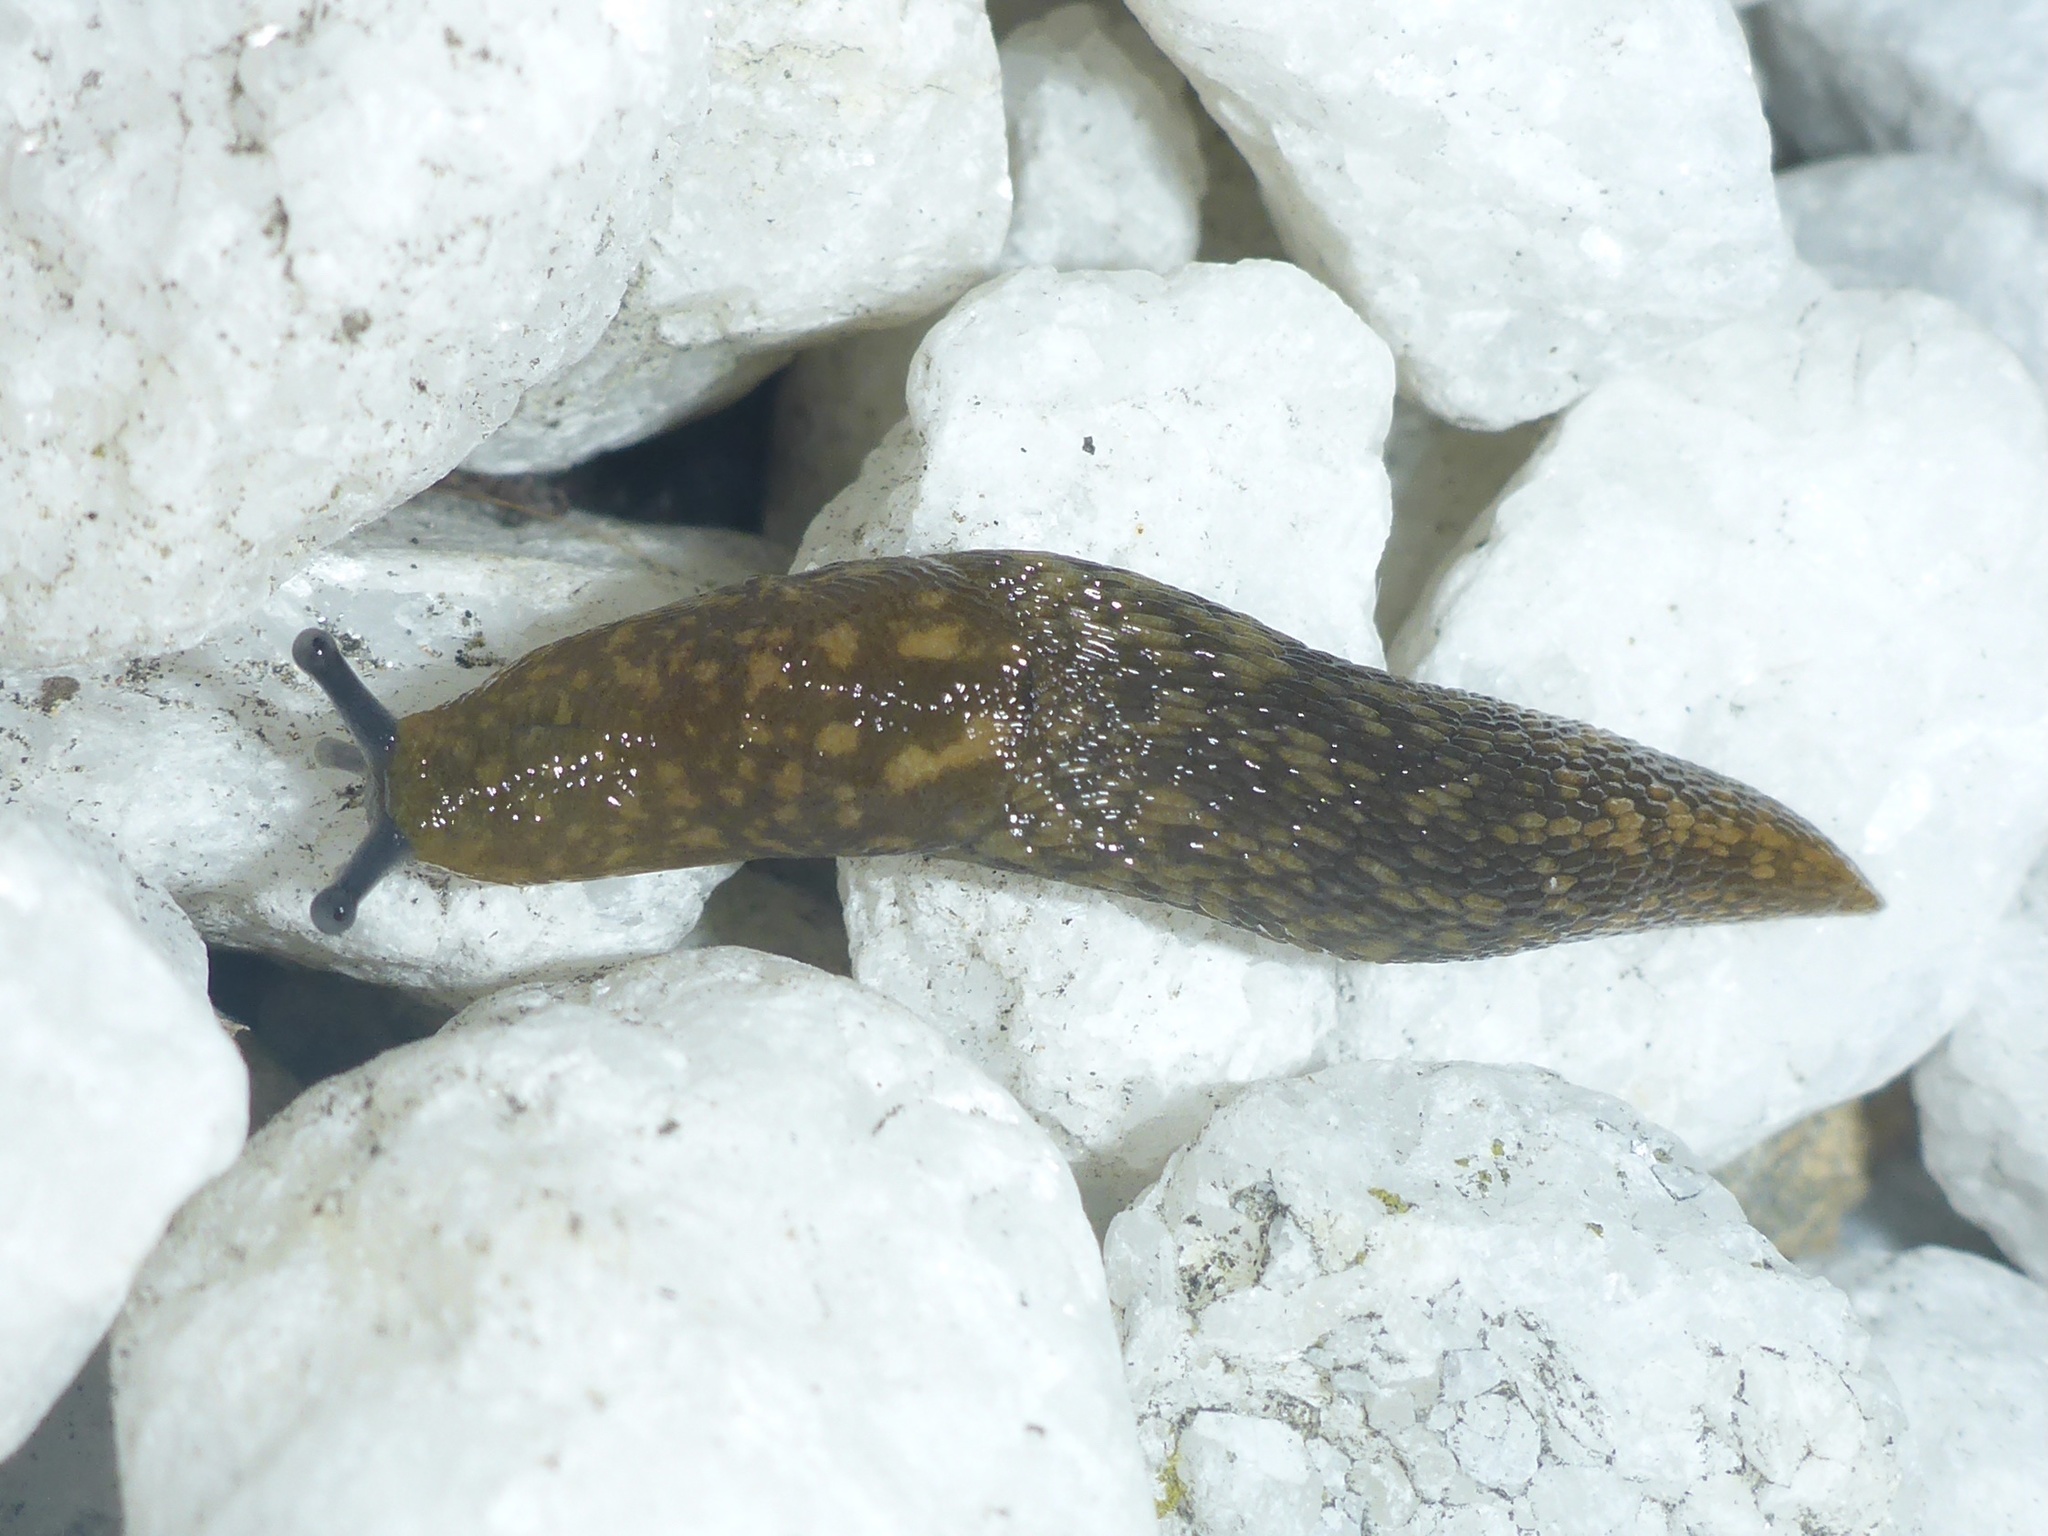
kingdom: Animalia
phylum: Mollusca
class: Gastropoda
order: Stylommatophora
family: Limacidae
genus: Limacus
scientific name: Limacus flavus
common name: Yellow gardenslug
